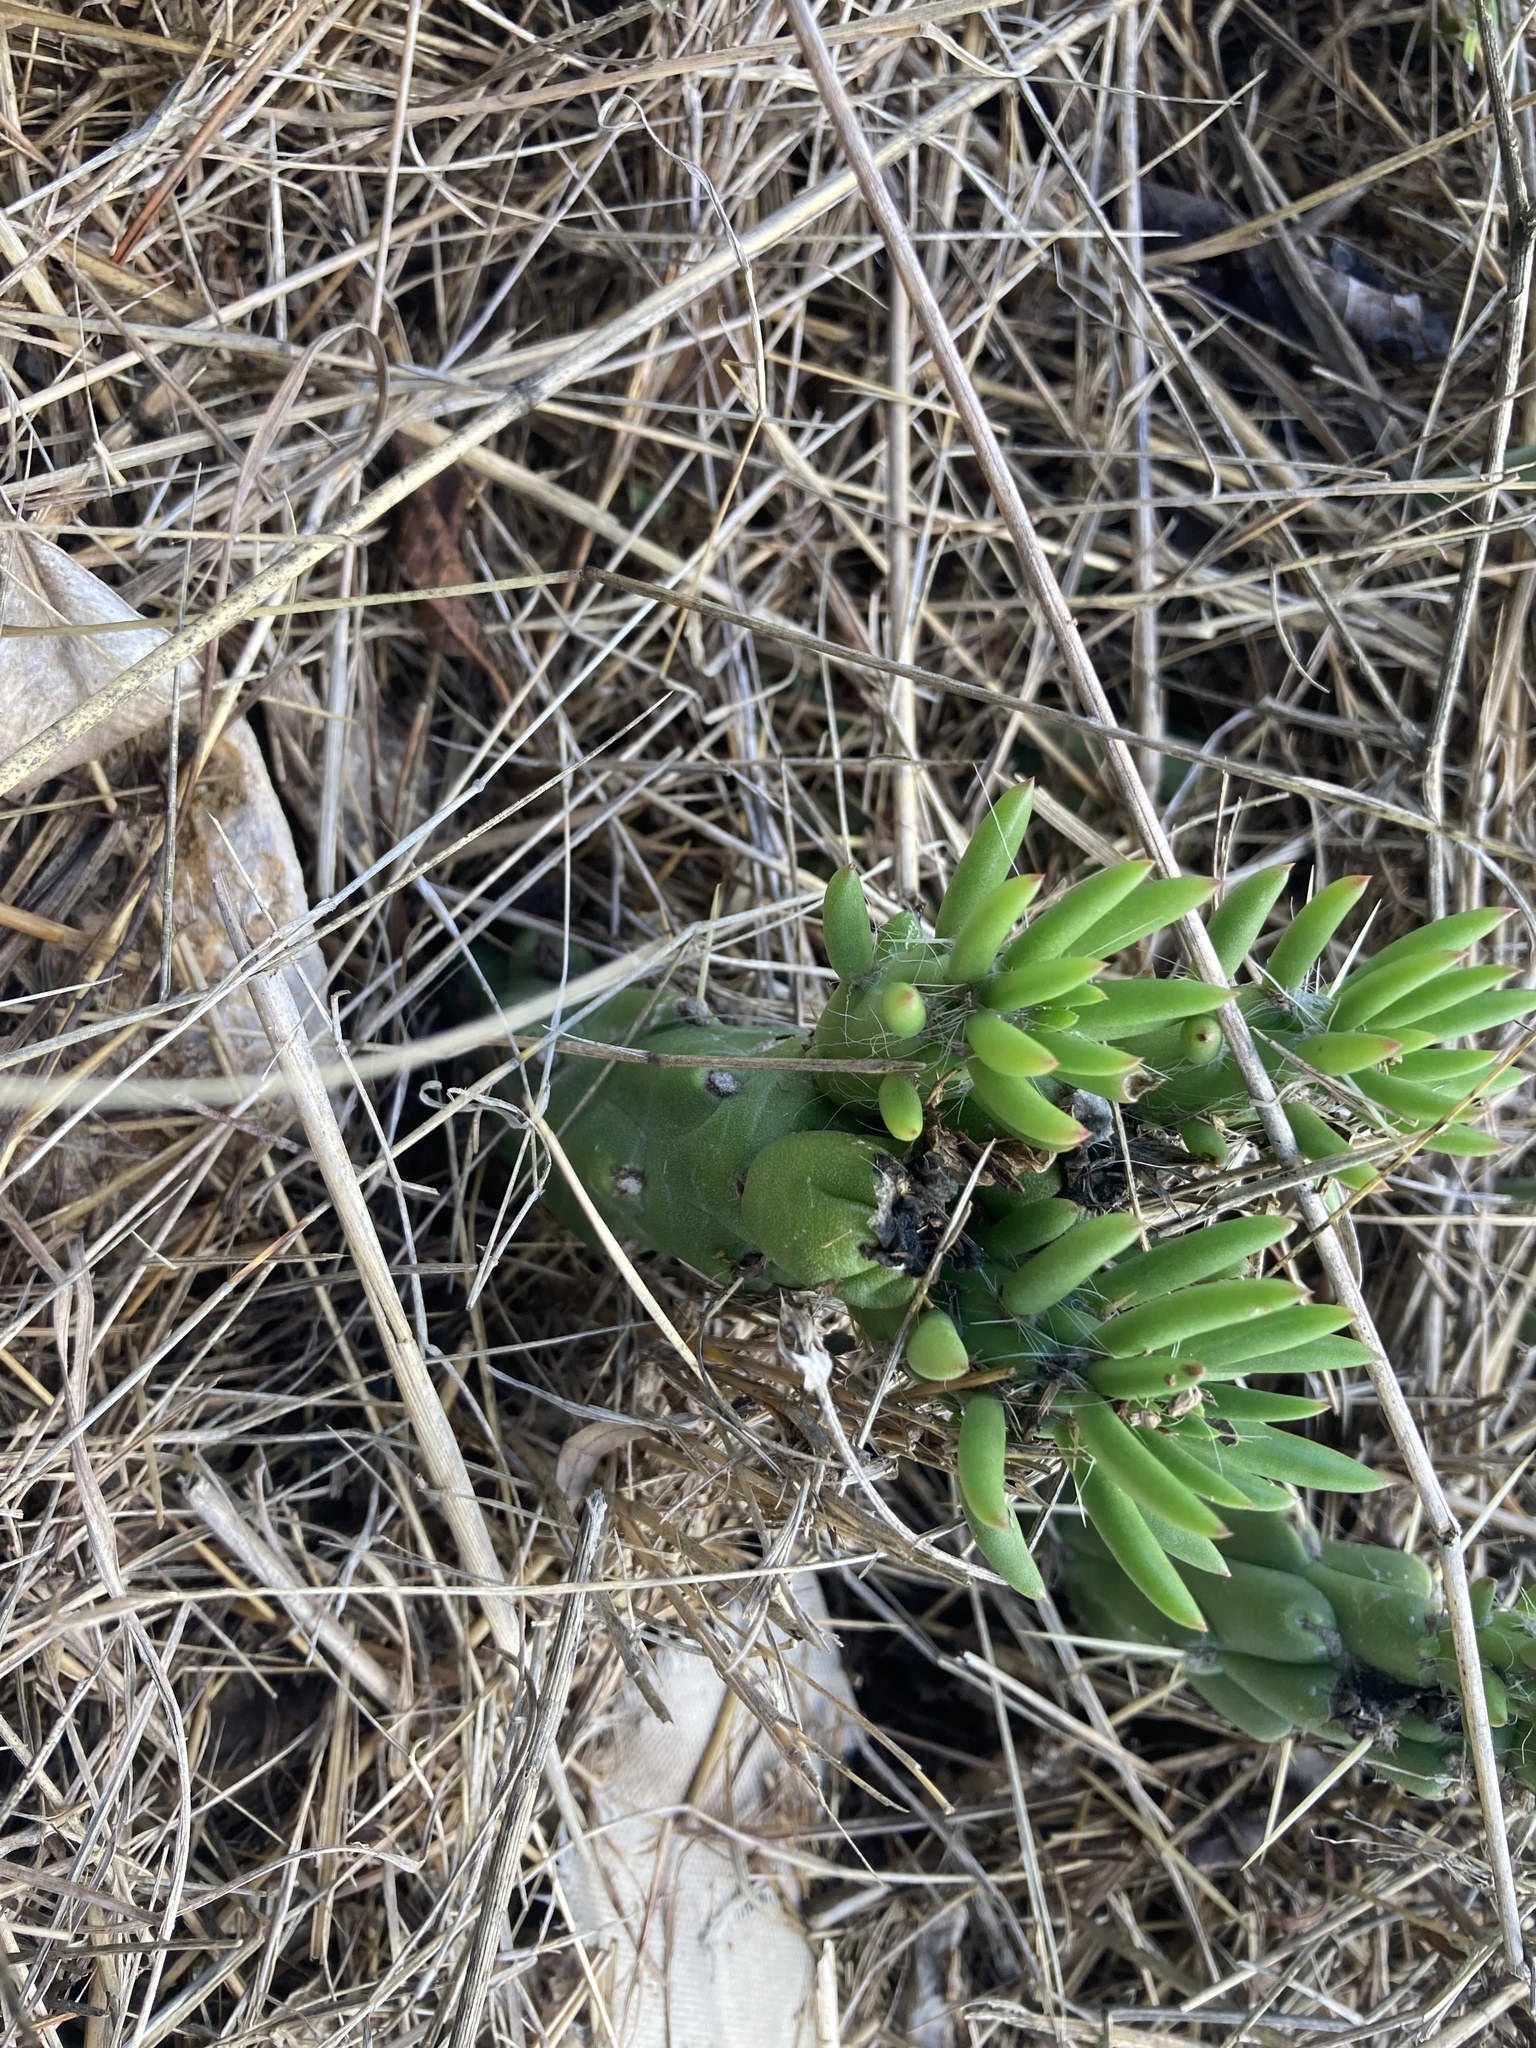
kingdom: Plantae
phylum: Tracheophyta
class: Magnoliopsida
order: Caryophyllales
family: Cactaceae
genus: Austrocylindropuntia
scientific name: Austrocylindropuntia subulata
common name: Eve's needle cactus
